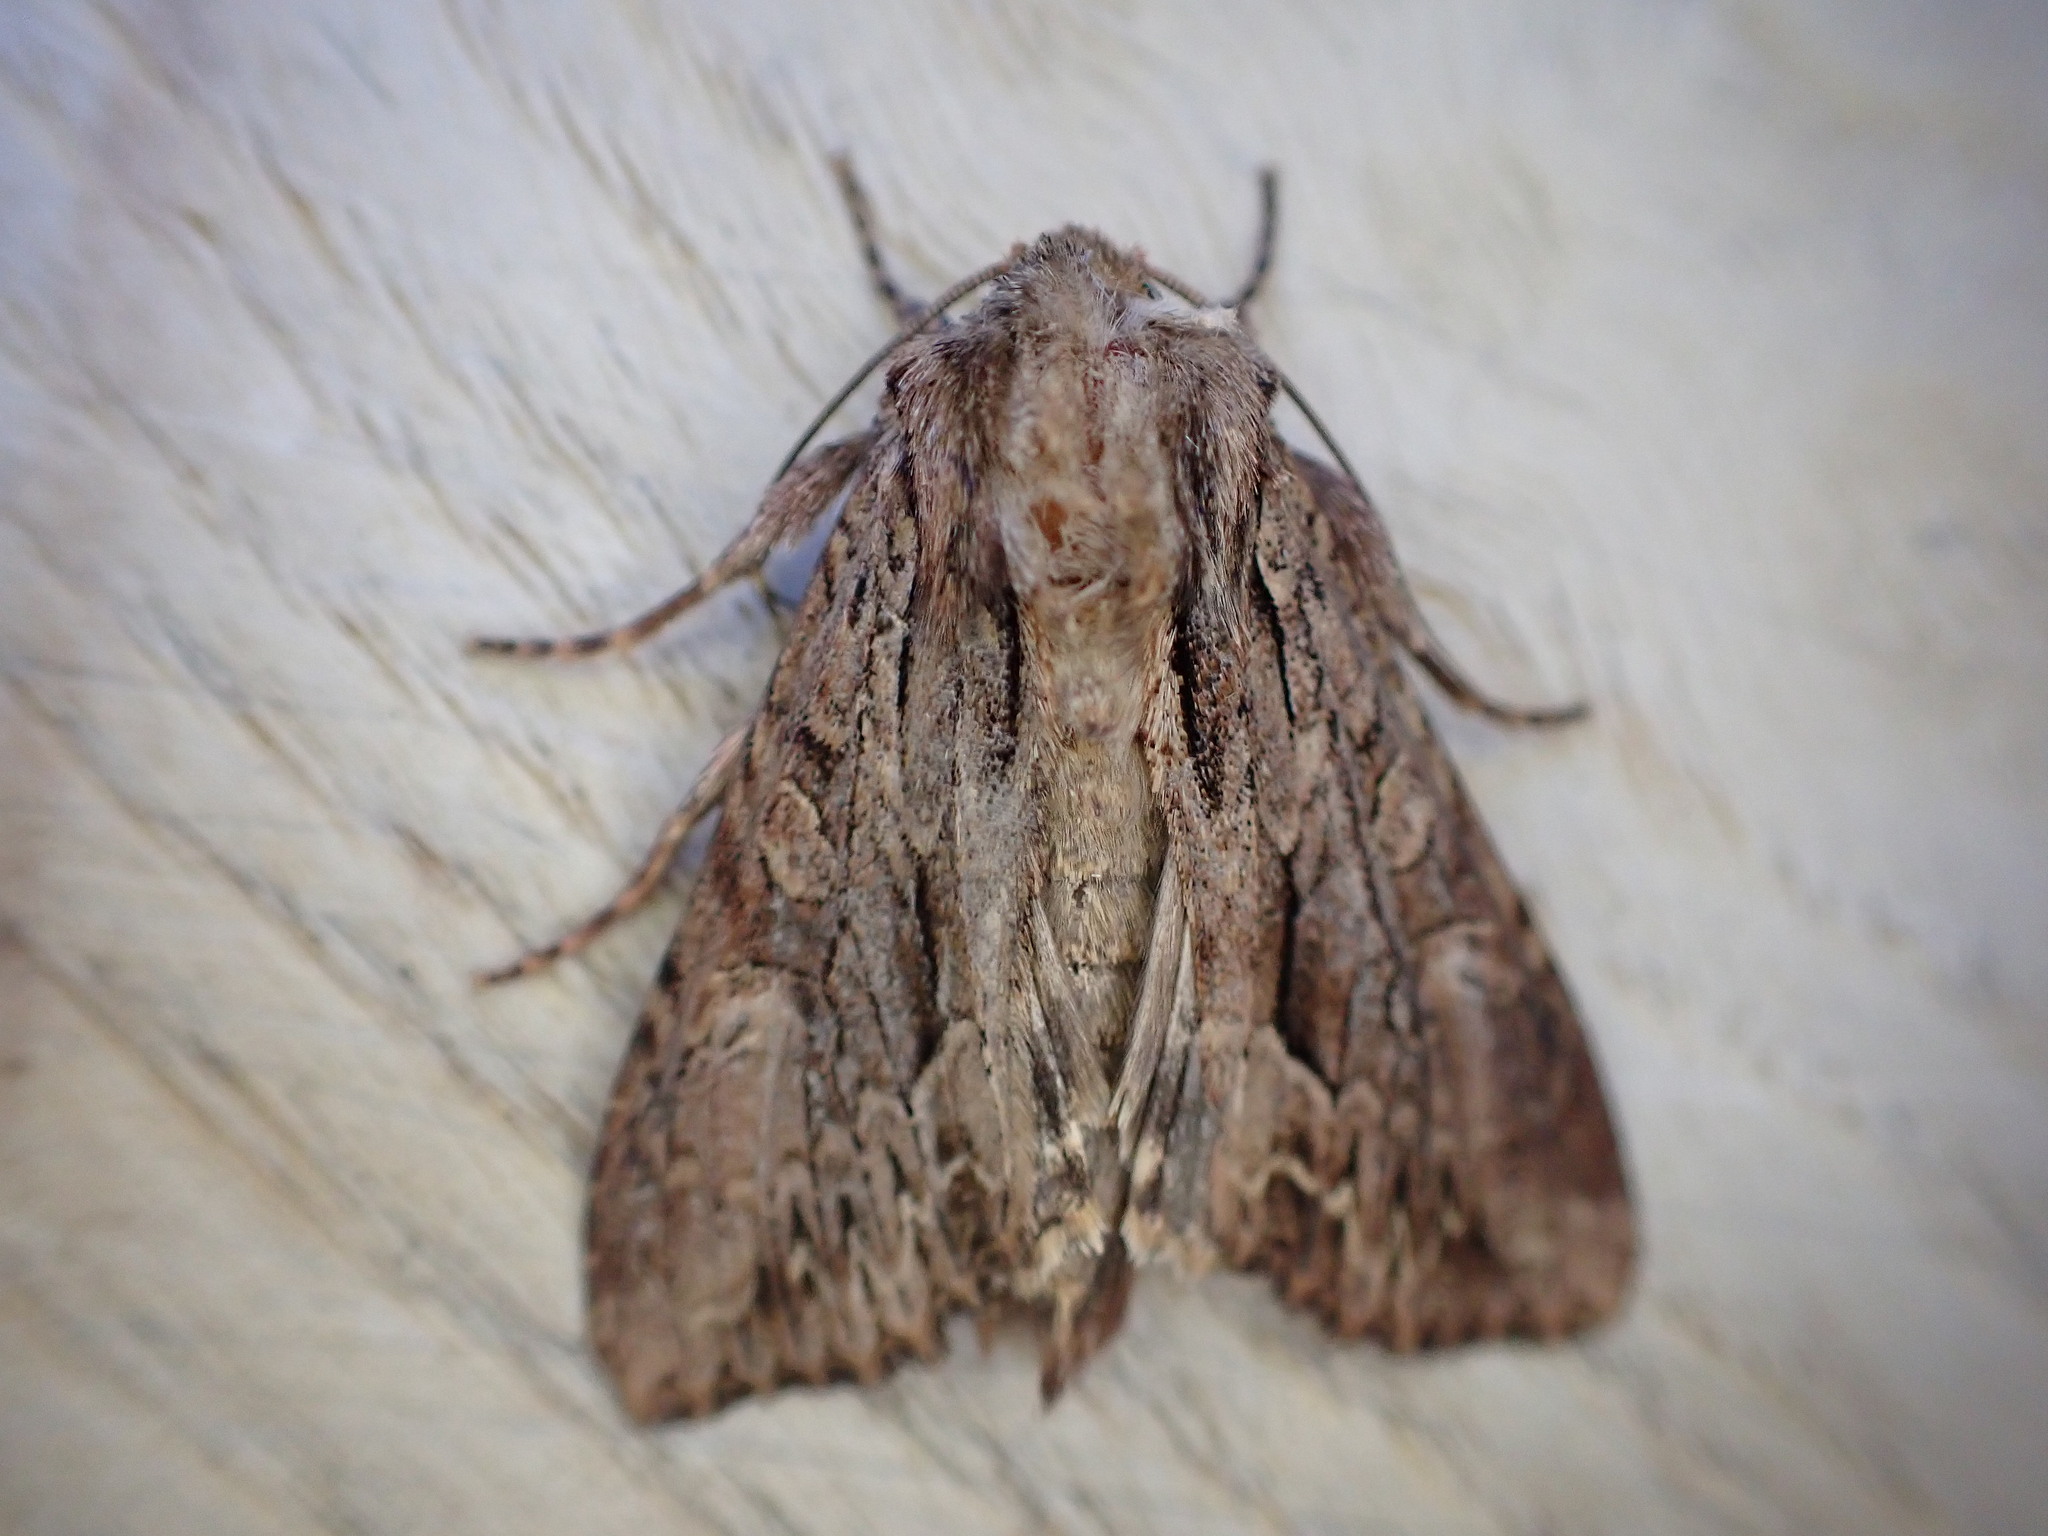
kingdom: Animalia
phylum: Arthropoda
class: Insecta
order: Lepidoptera
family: Noctuidae
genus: Apamea
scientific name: Apamea monoglypha
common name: Dark arches
